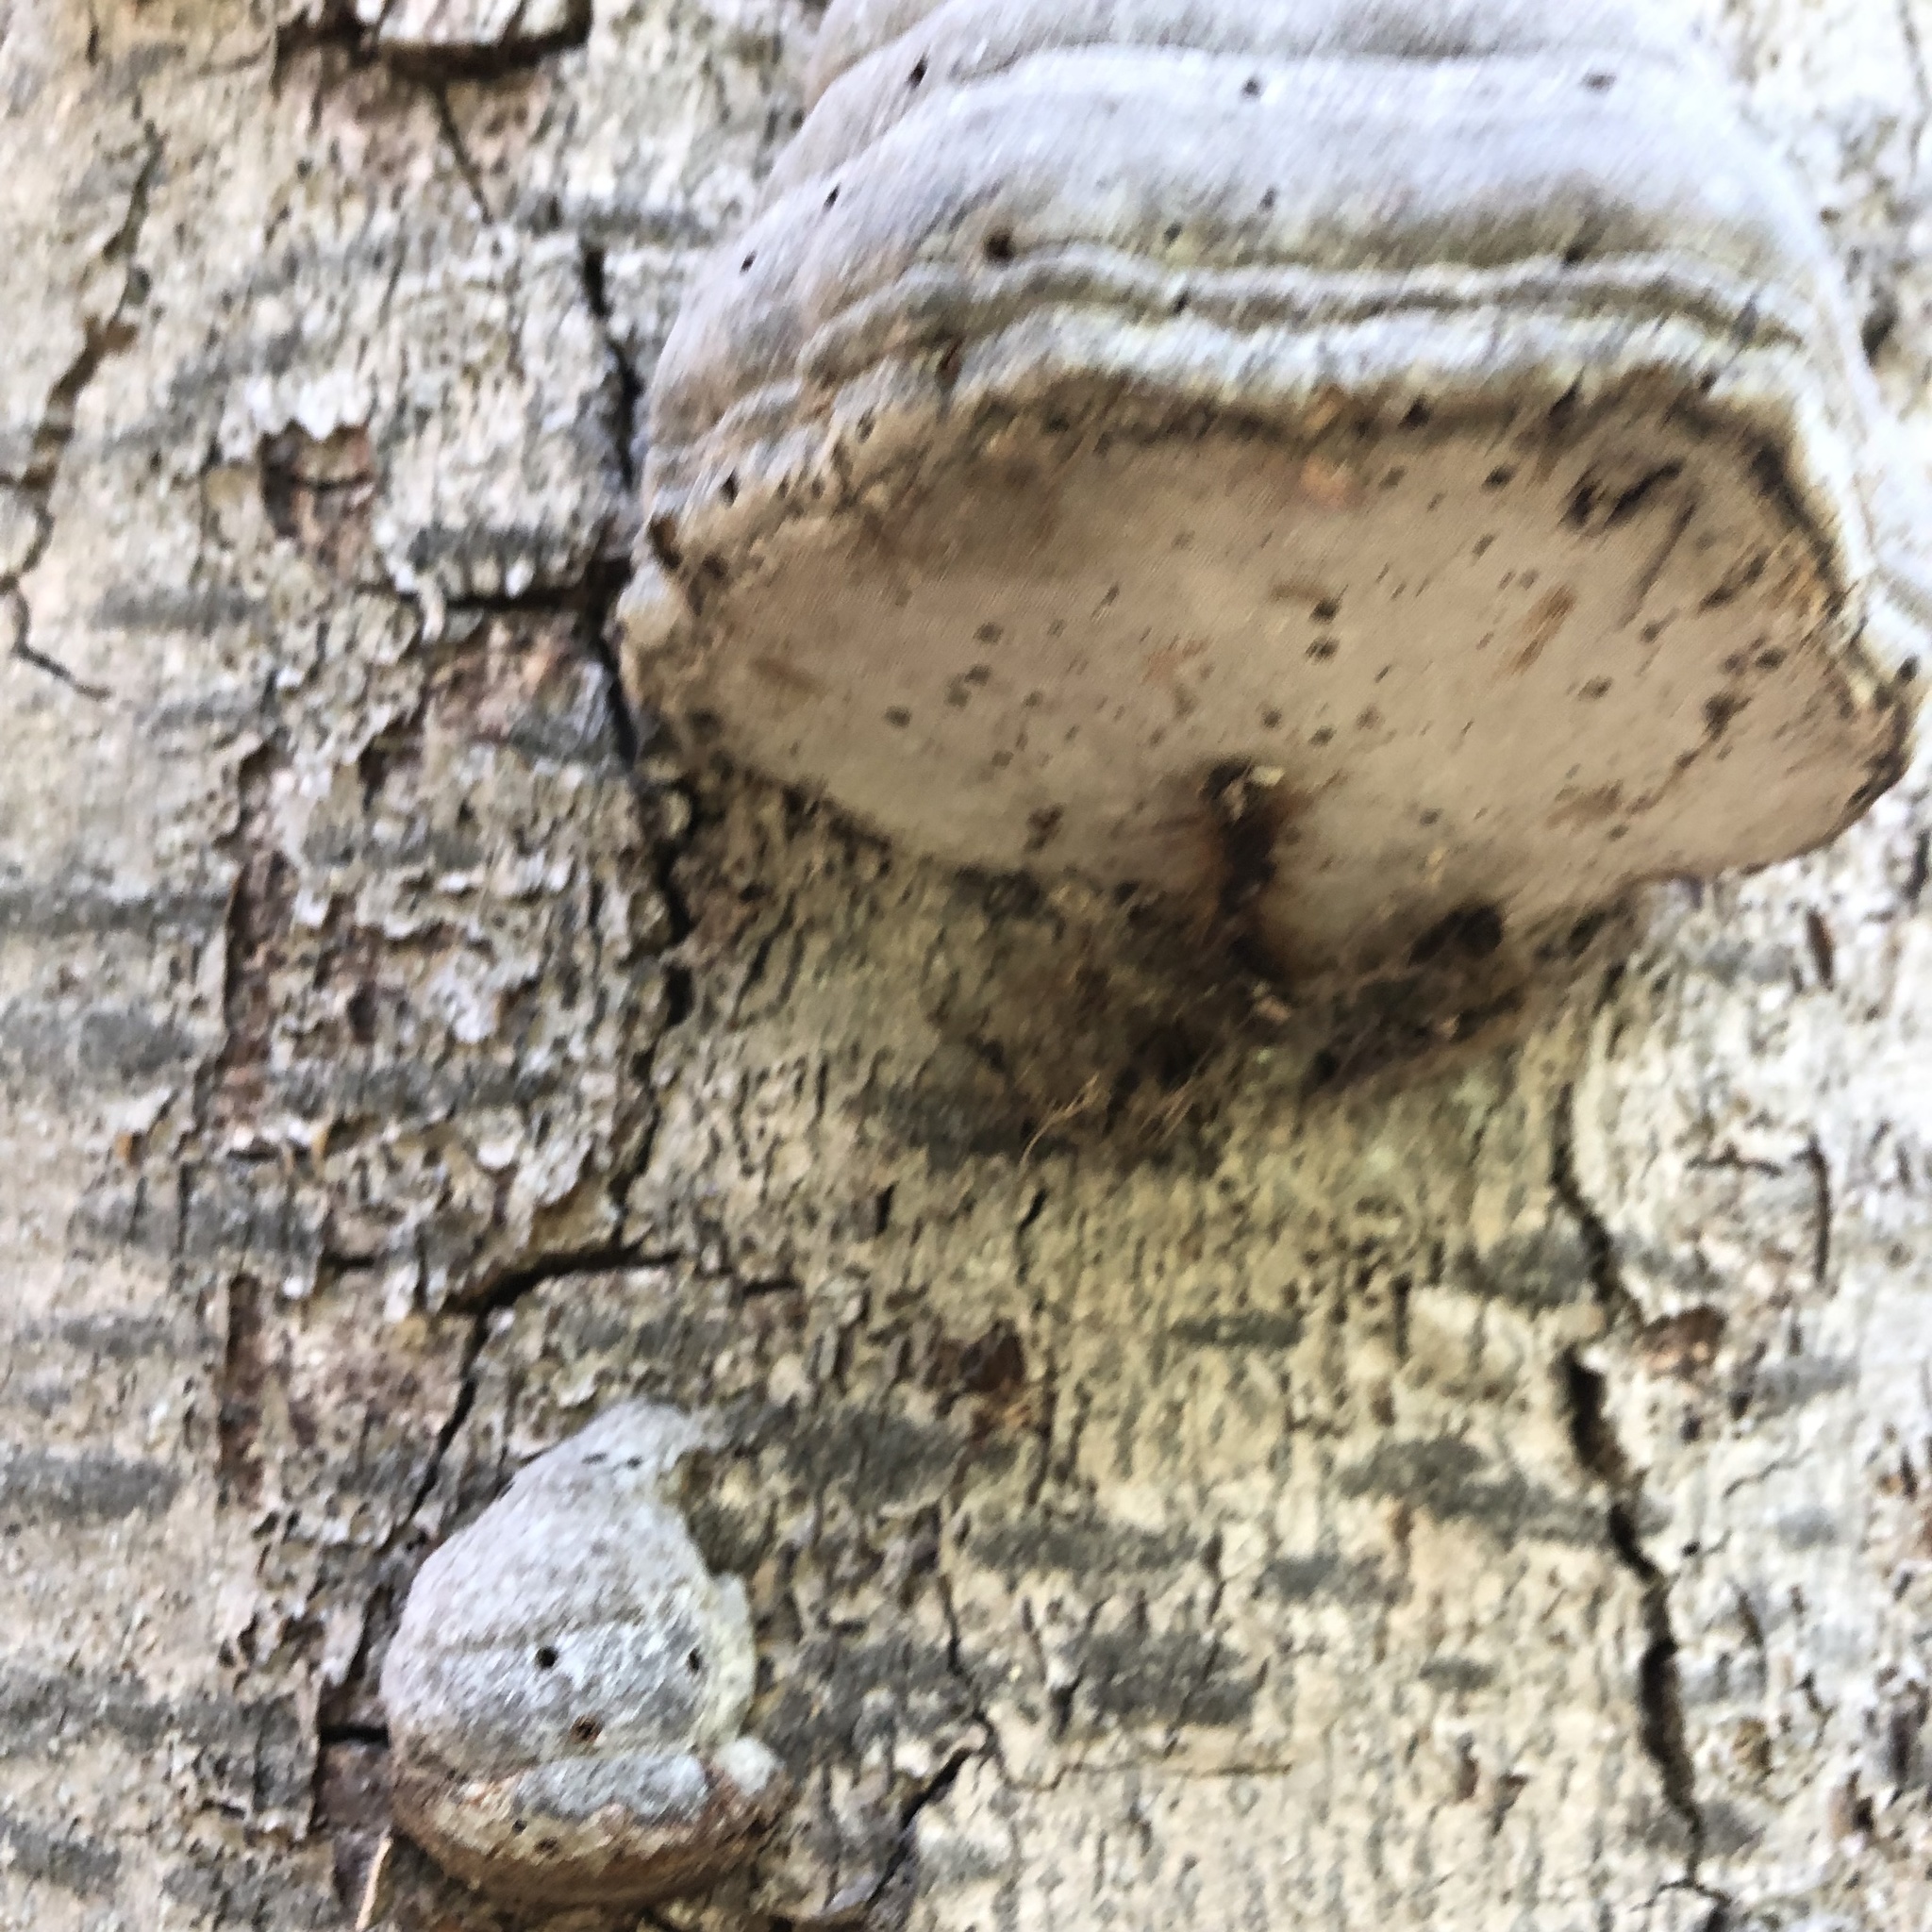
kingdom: Fungi
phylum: Basidiomycota
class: Agaricomycetes
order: Polyporales
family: Polyporaceae
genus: Fomes
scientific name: Fomes fomentarius
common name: Hoof fungus
